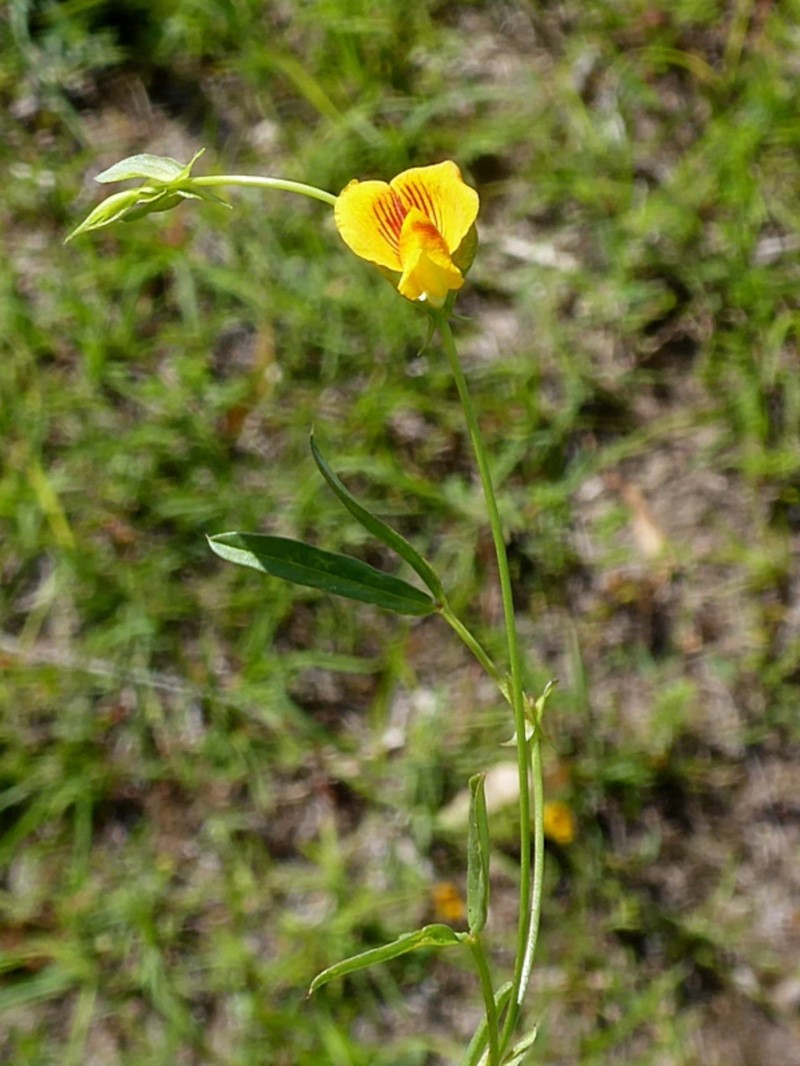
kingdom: Plantae
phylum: Tracheophyta
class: Magnoliopsida
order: Fabales
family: Fabaceae
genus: Zornia
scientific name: Zornia dyctiocarpa
